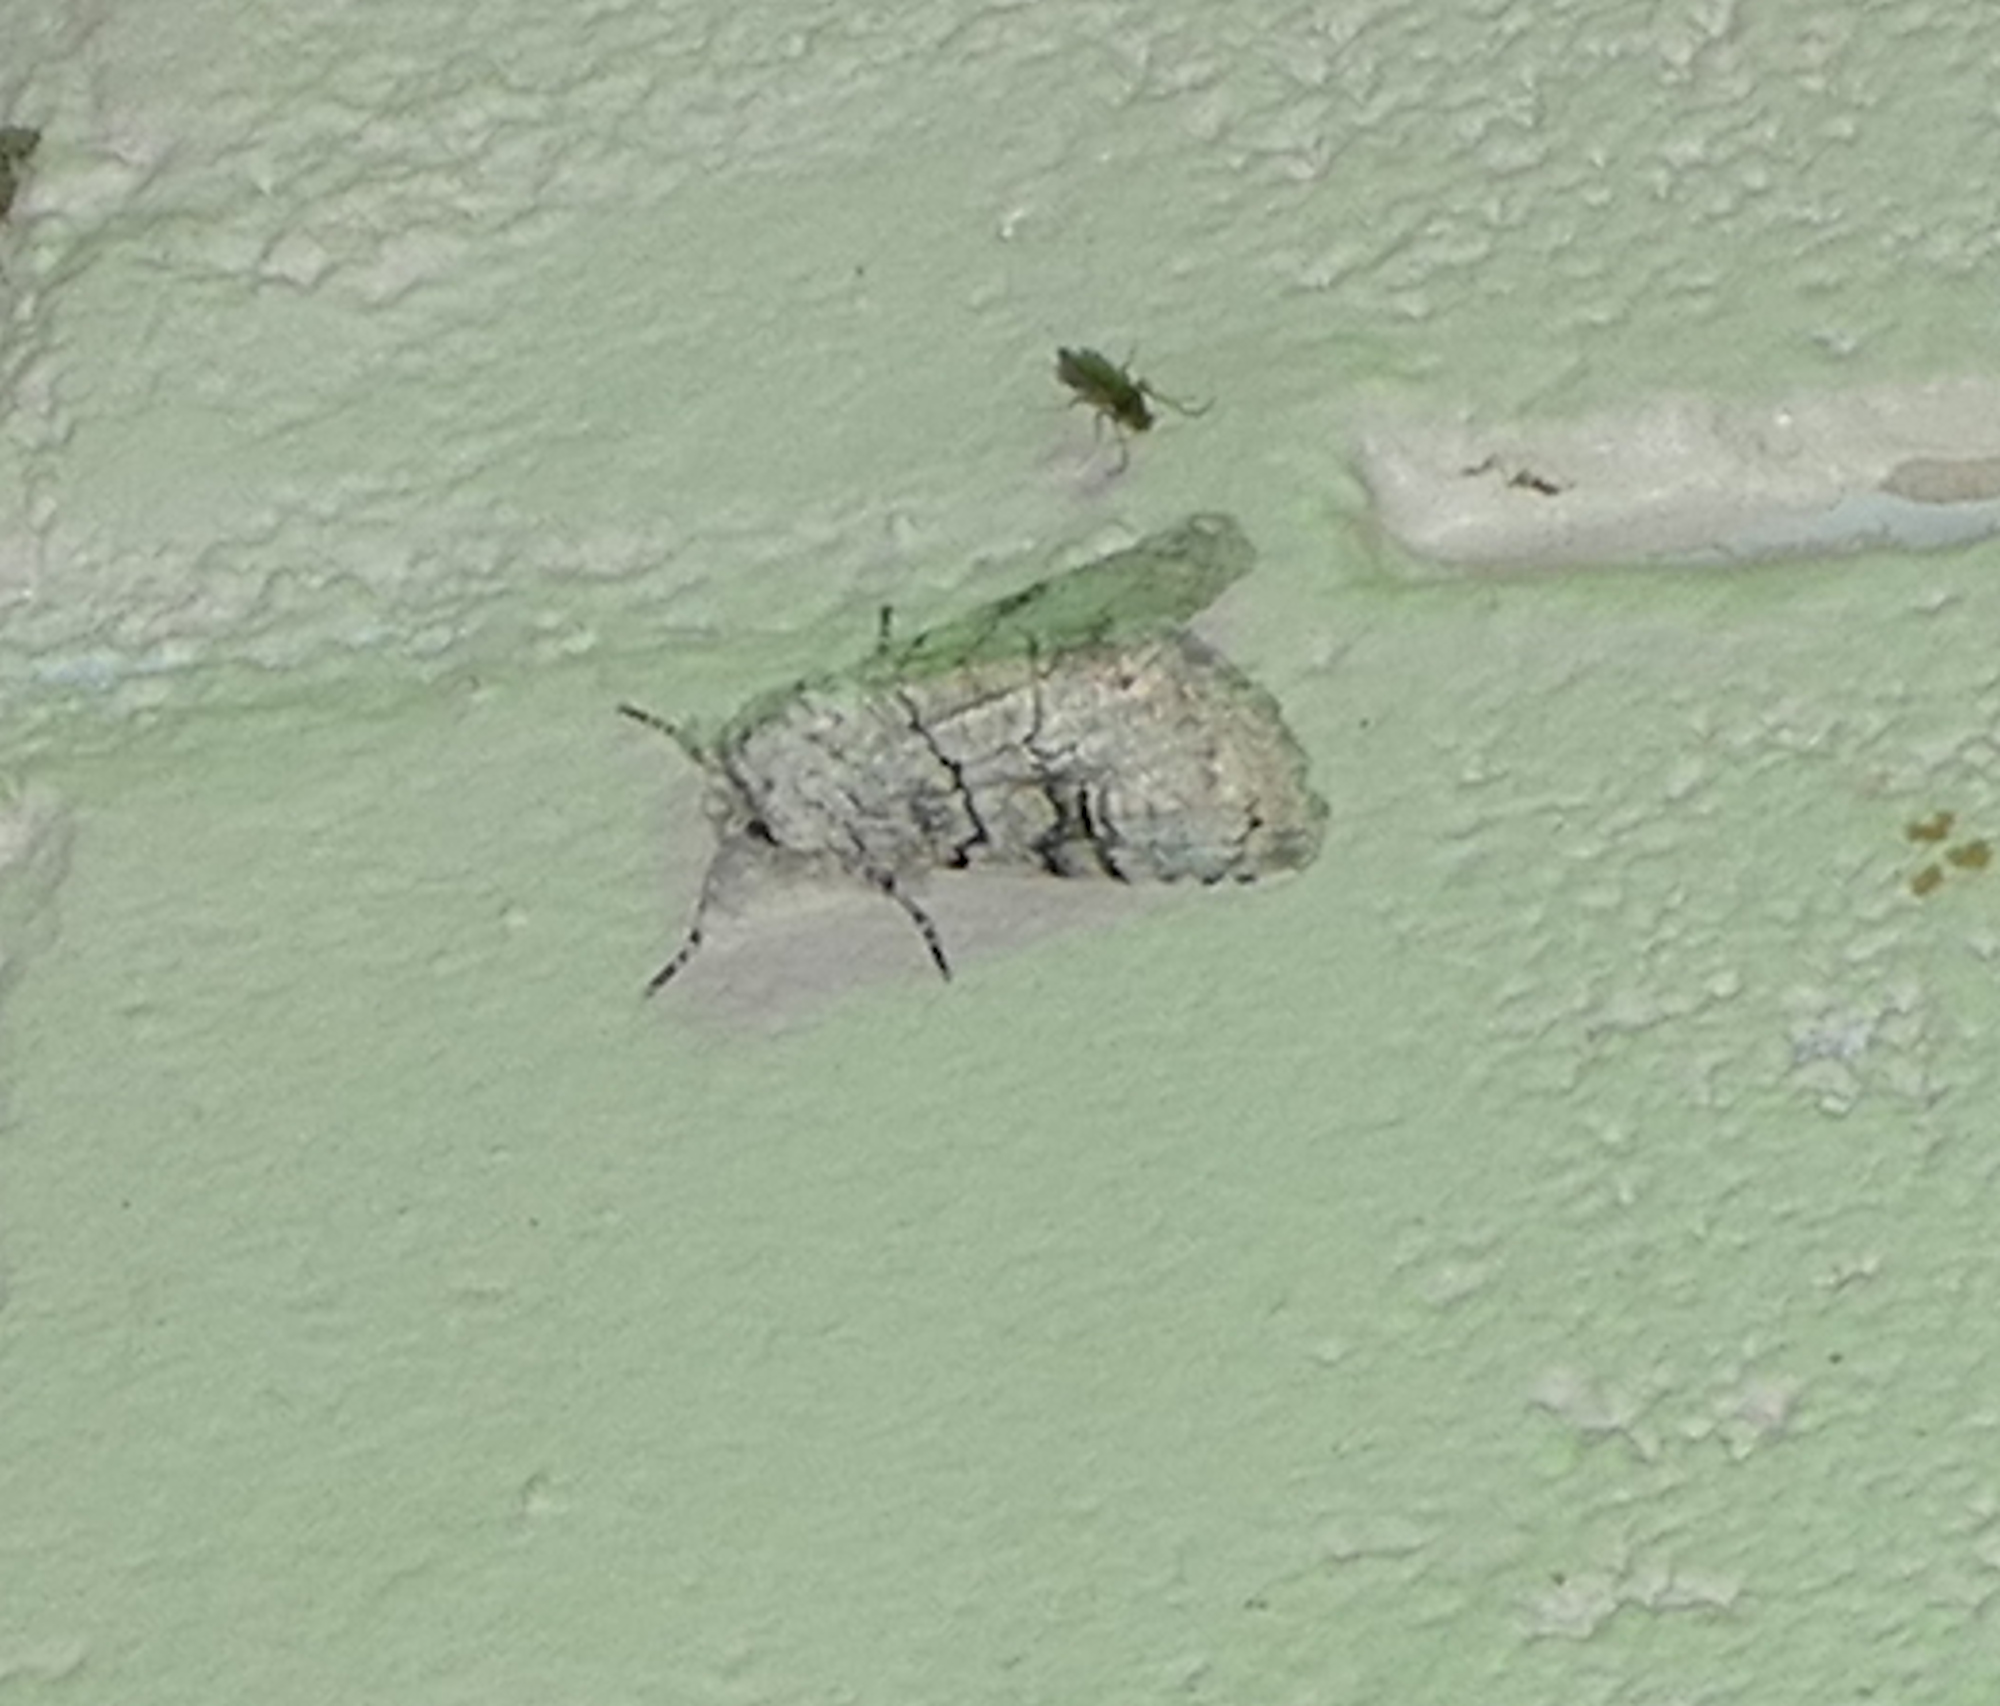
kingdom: Animalia
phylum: Arthropoda
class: Insecta
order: Lepidoptera
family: Noctuidae
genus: Charadra
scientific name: Charadra dispulsa
